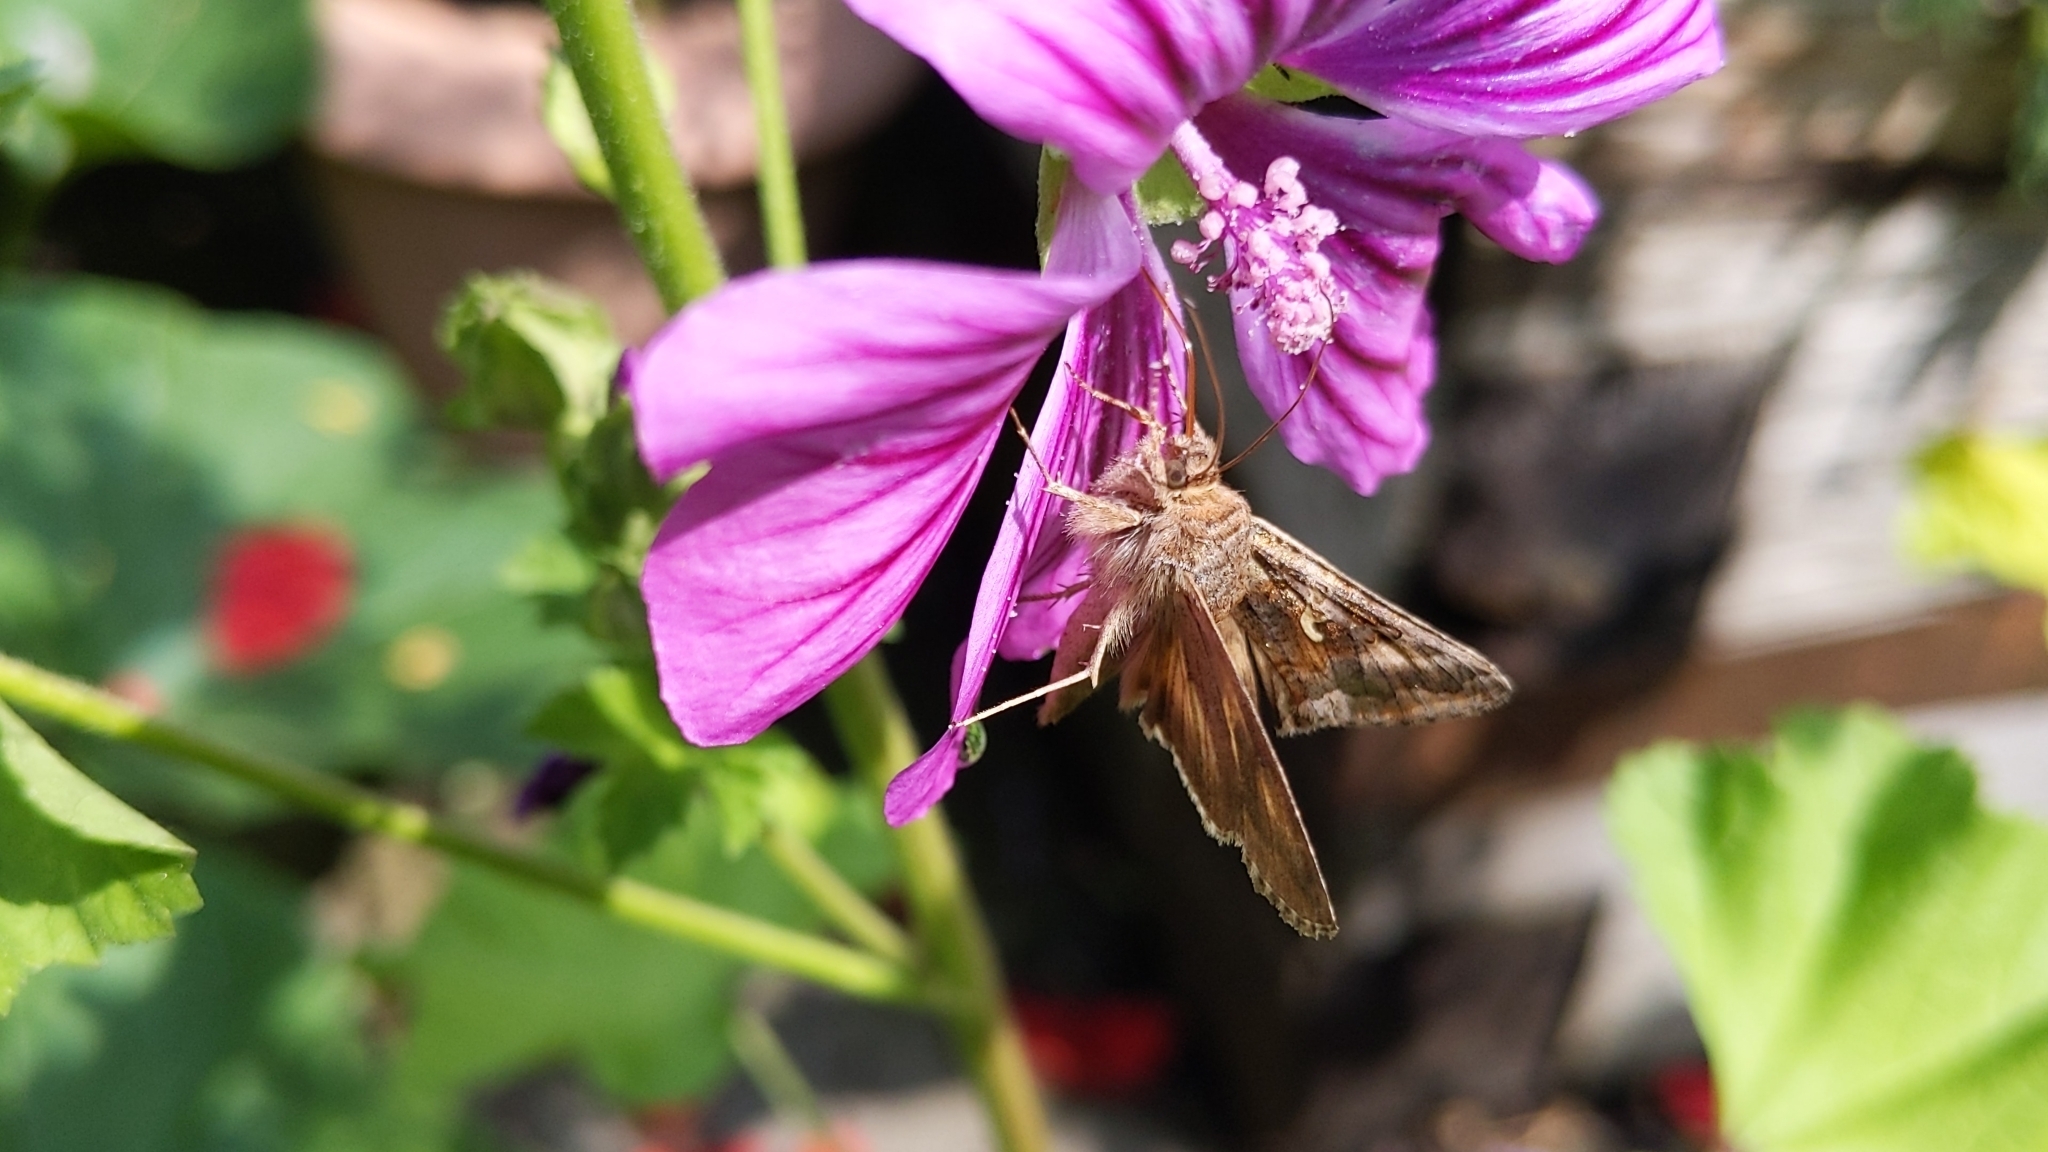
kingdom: Animalia
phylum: Arthropoda
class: Insecta
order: Lepidoptera
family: Noctuidae
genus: Autographa
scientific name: Autographa gamma
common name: Silver y
